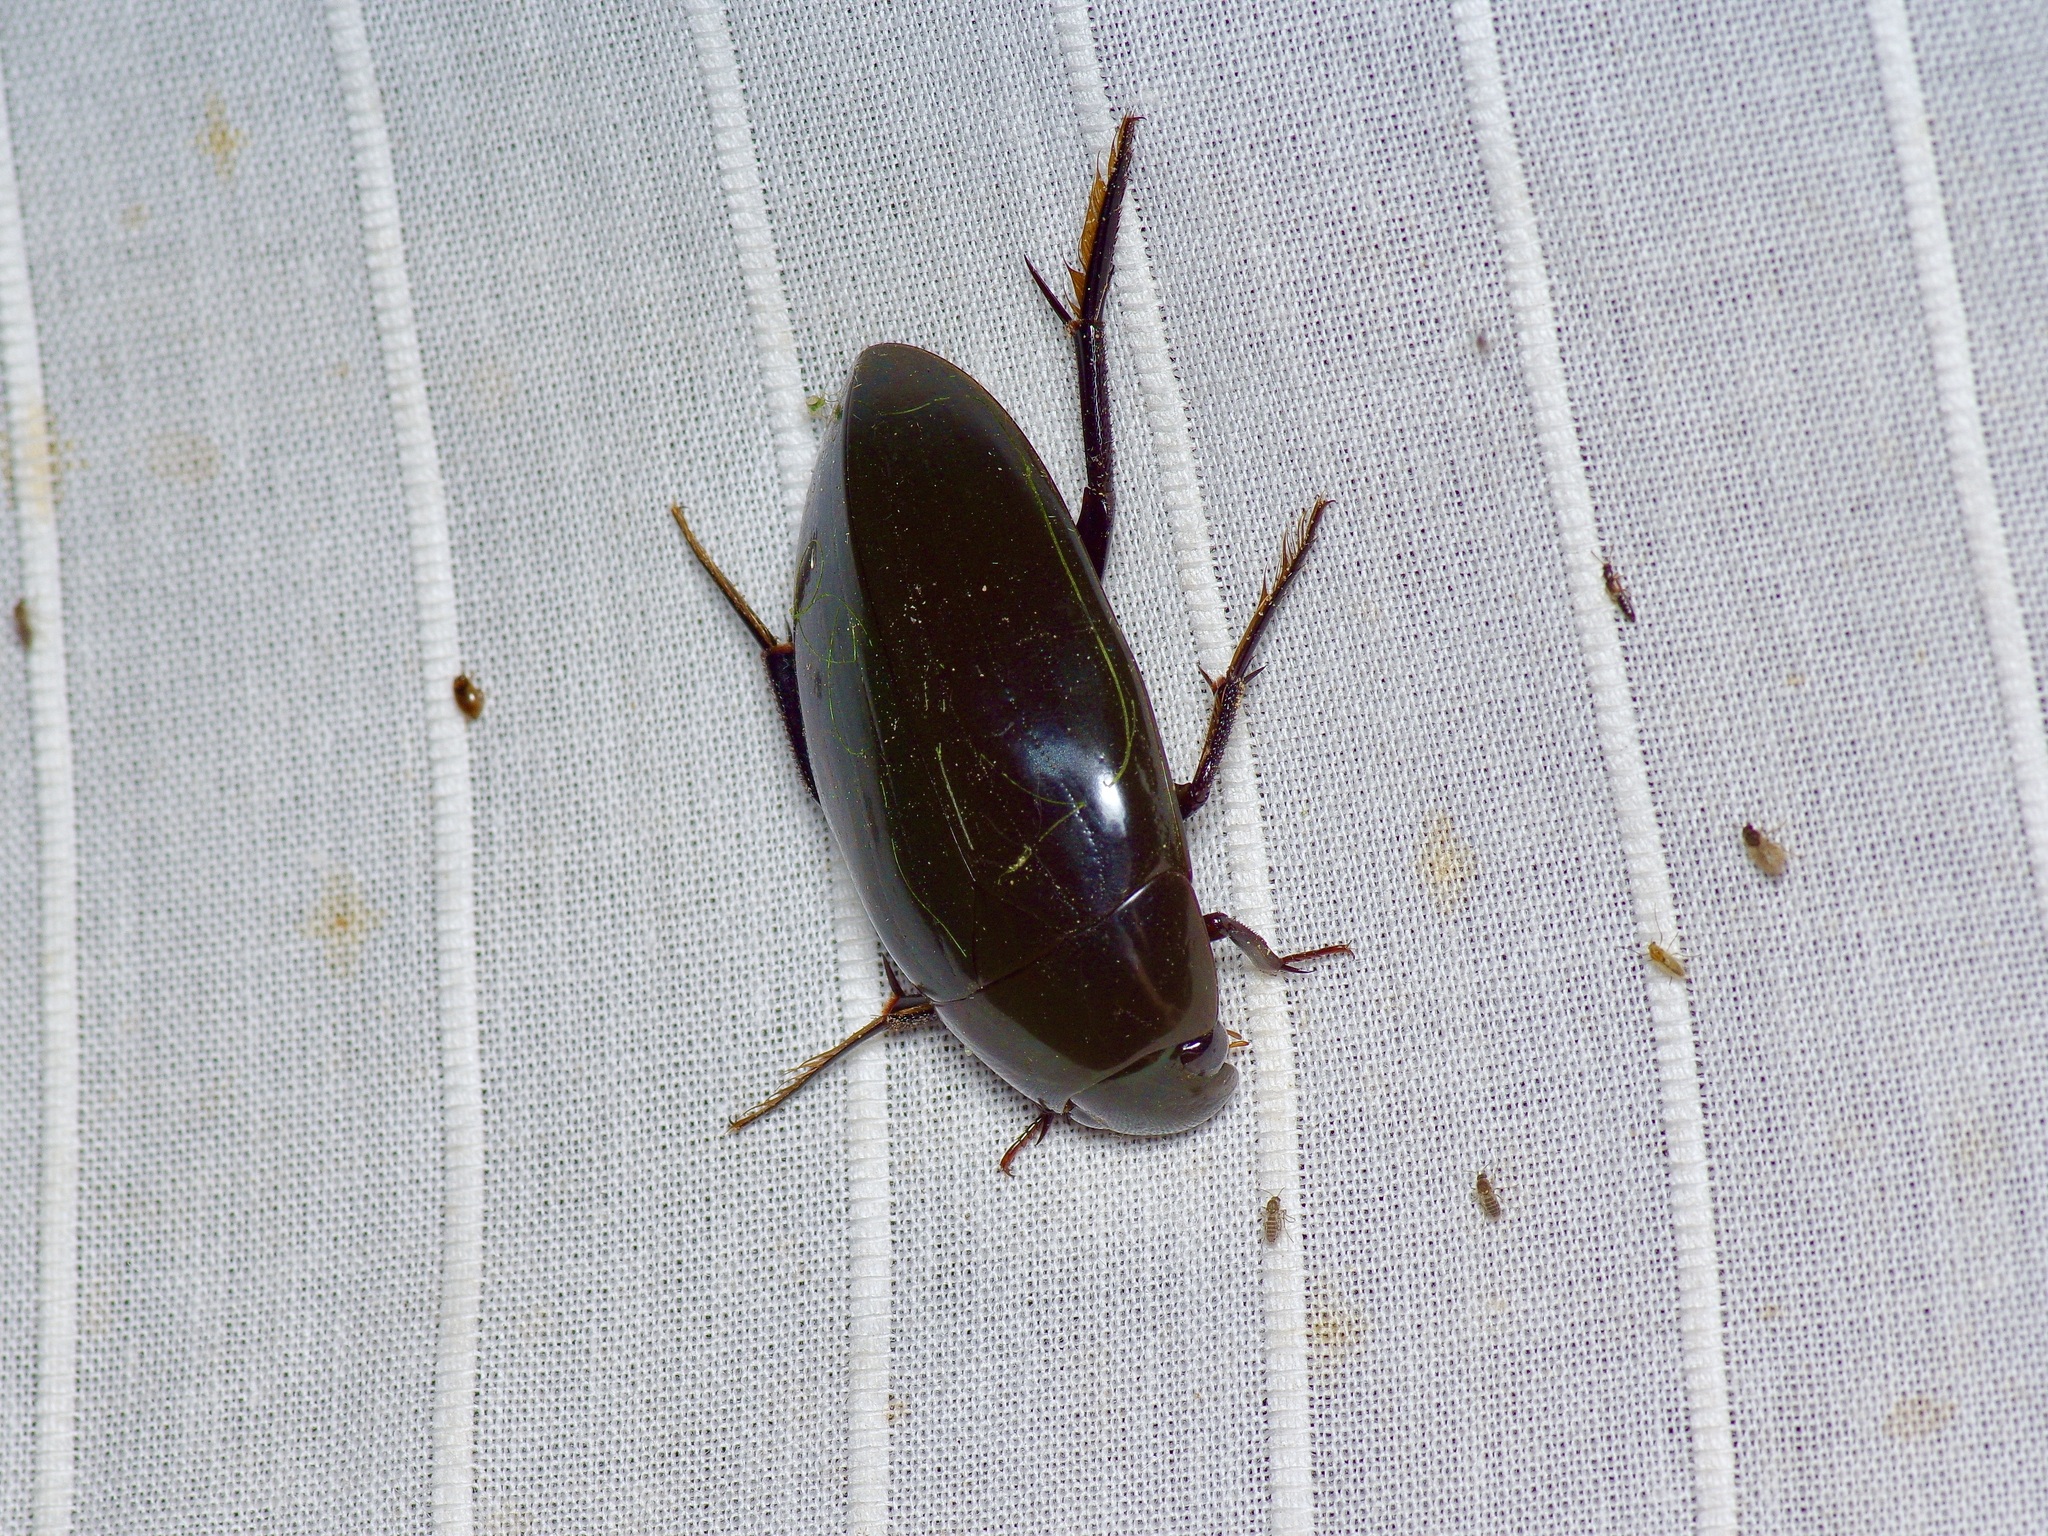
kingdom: Animalia
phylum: Arthropoda
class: Insecta
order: Coleoptera
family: Hydrophilidae
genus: Hydrophilus
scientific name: Hydrophilus
